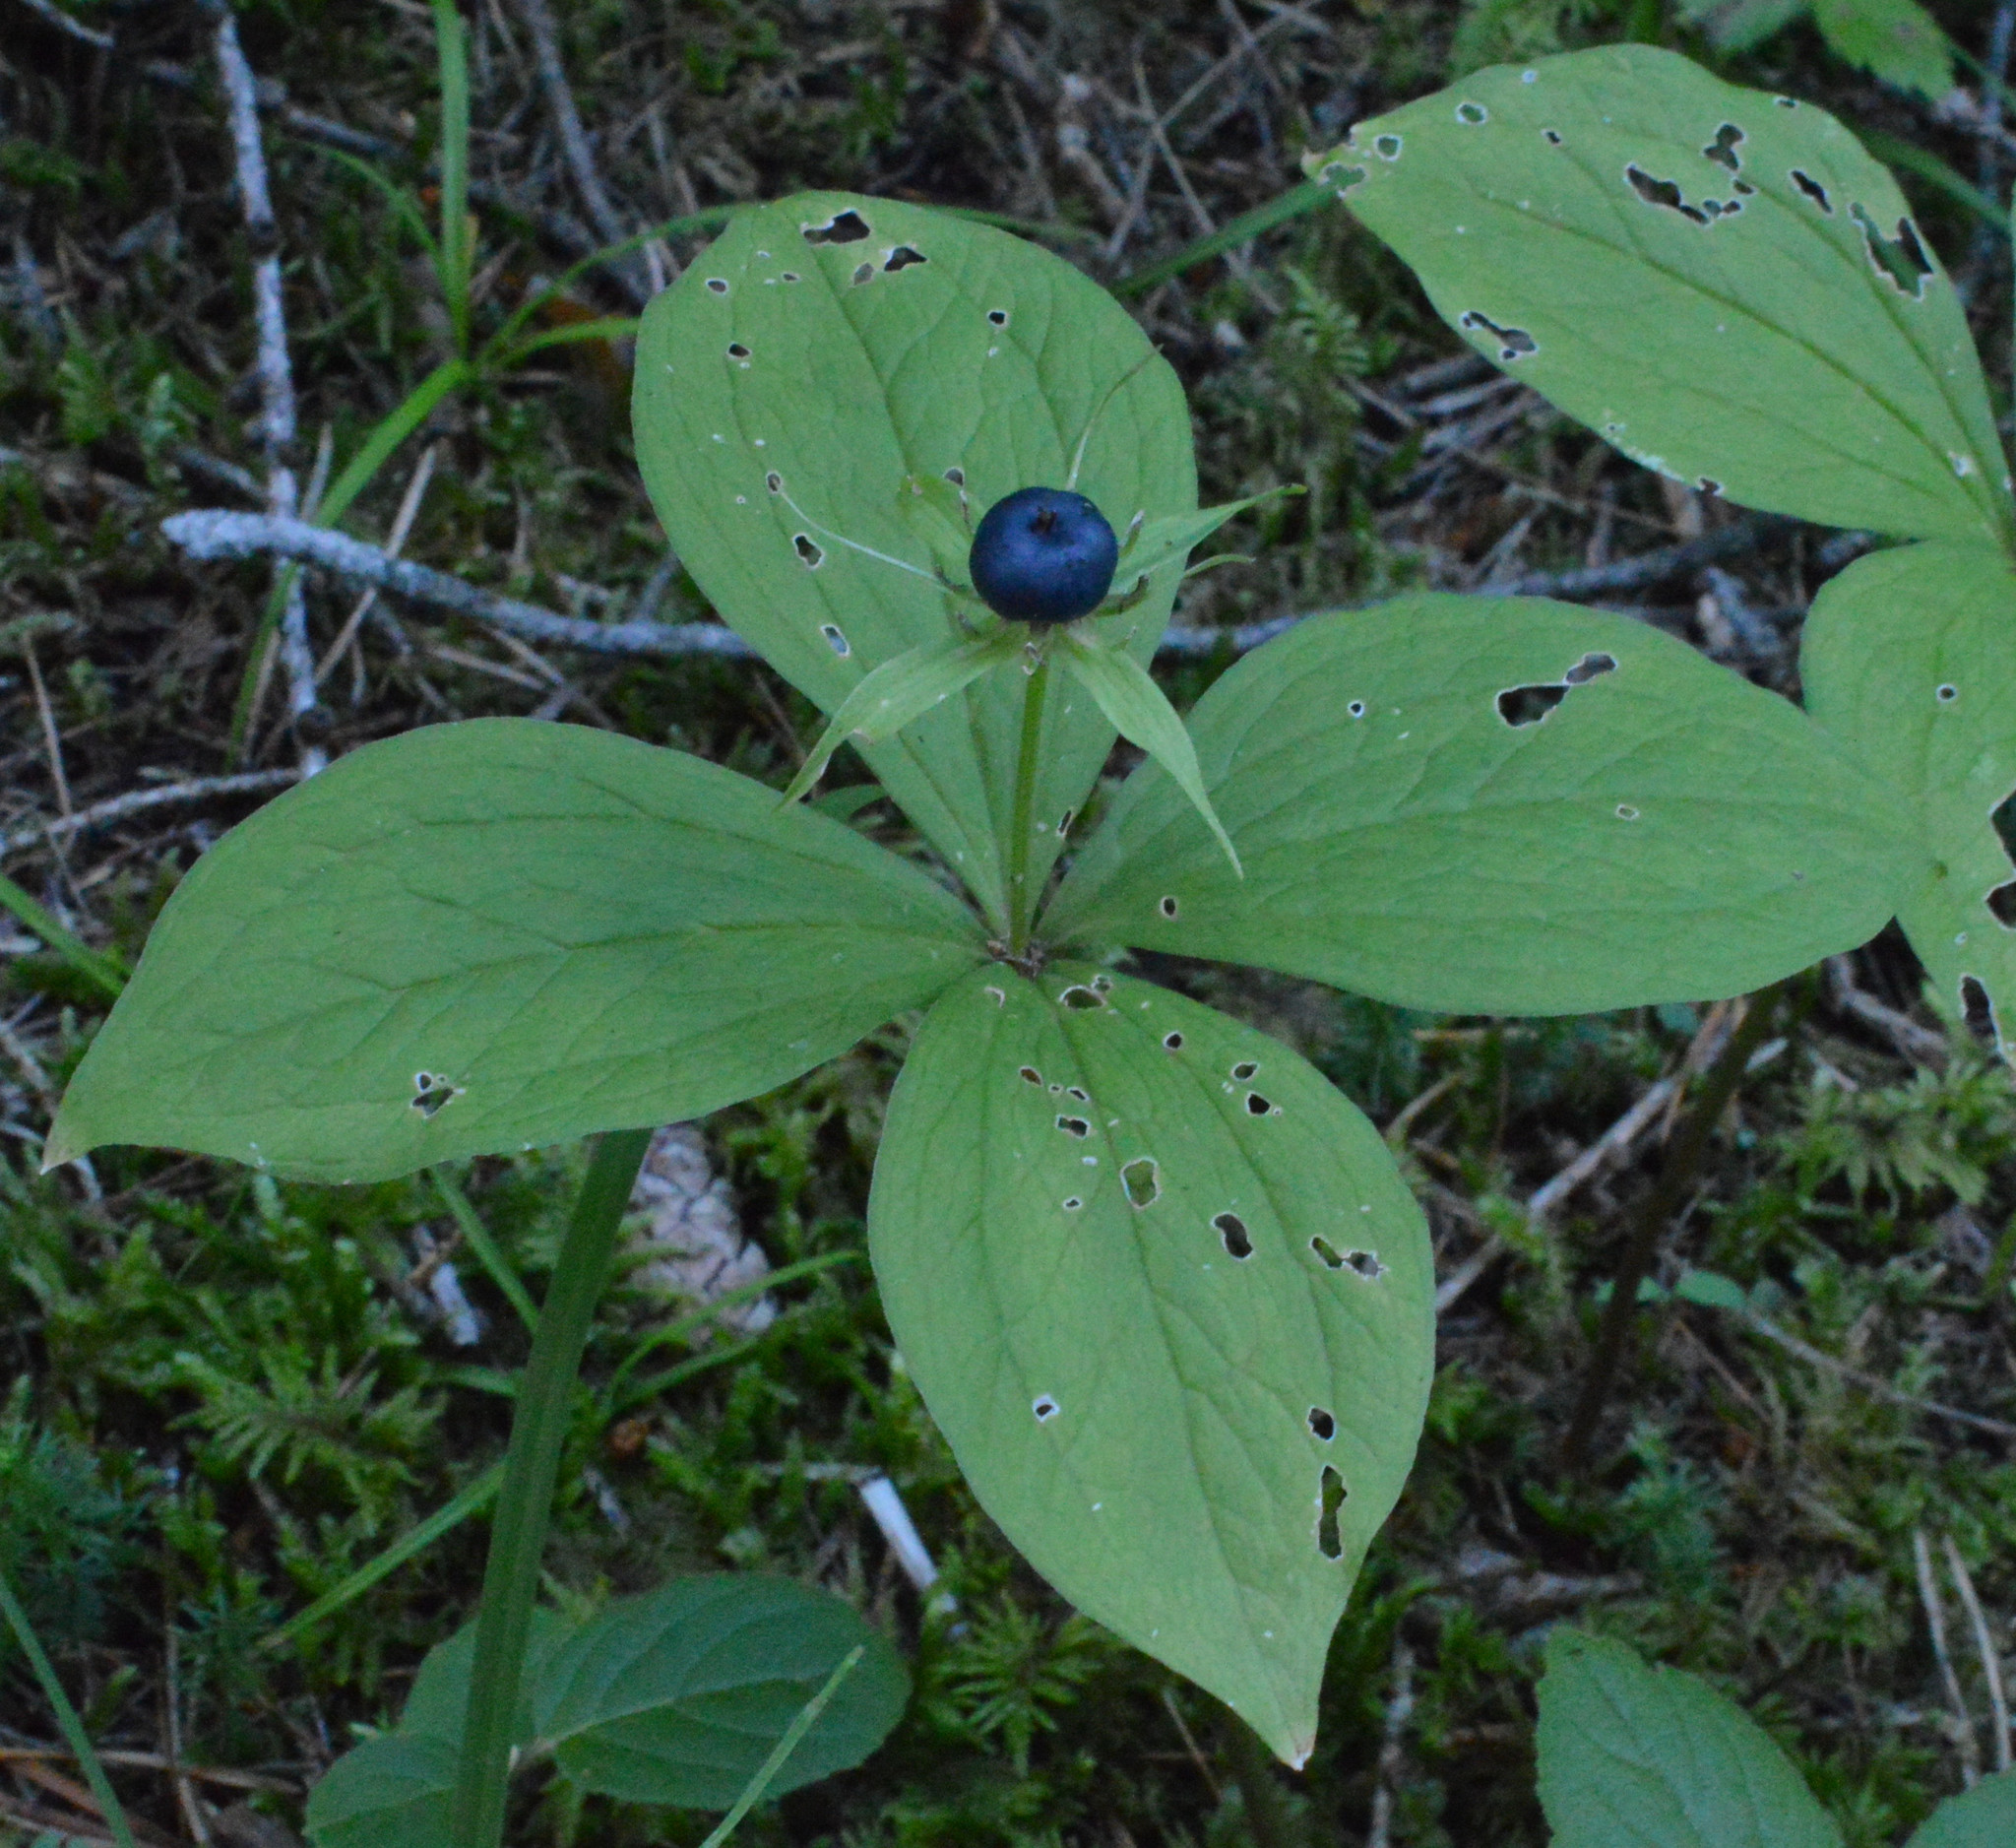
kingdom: Plantae
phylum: Tracheophyta
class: Liliopsida
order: Liliales
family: Melanthiaceae
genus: Paris
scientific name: Paris quadrifolia
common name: Herb-paris
